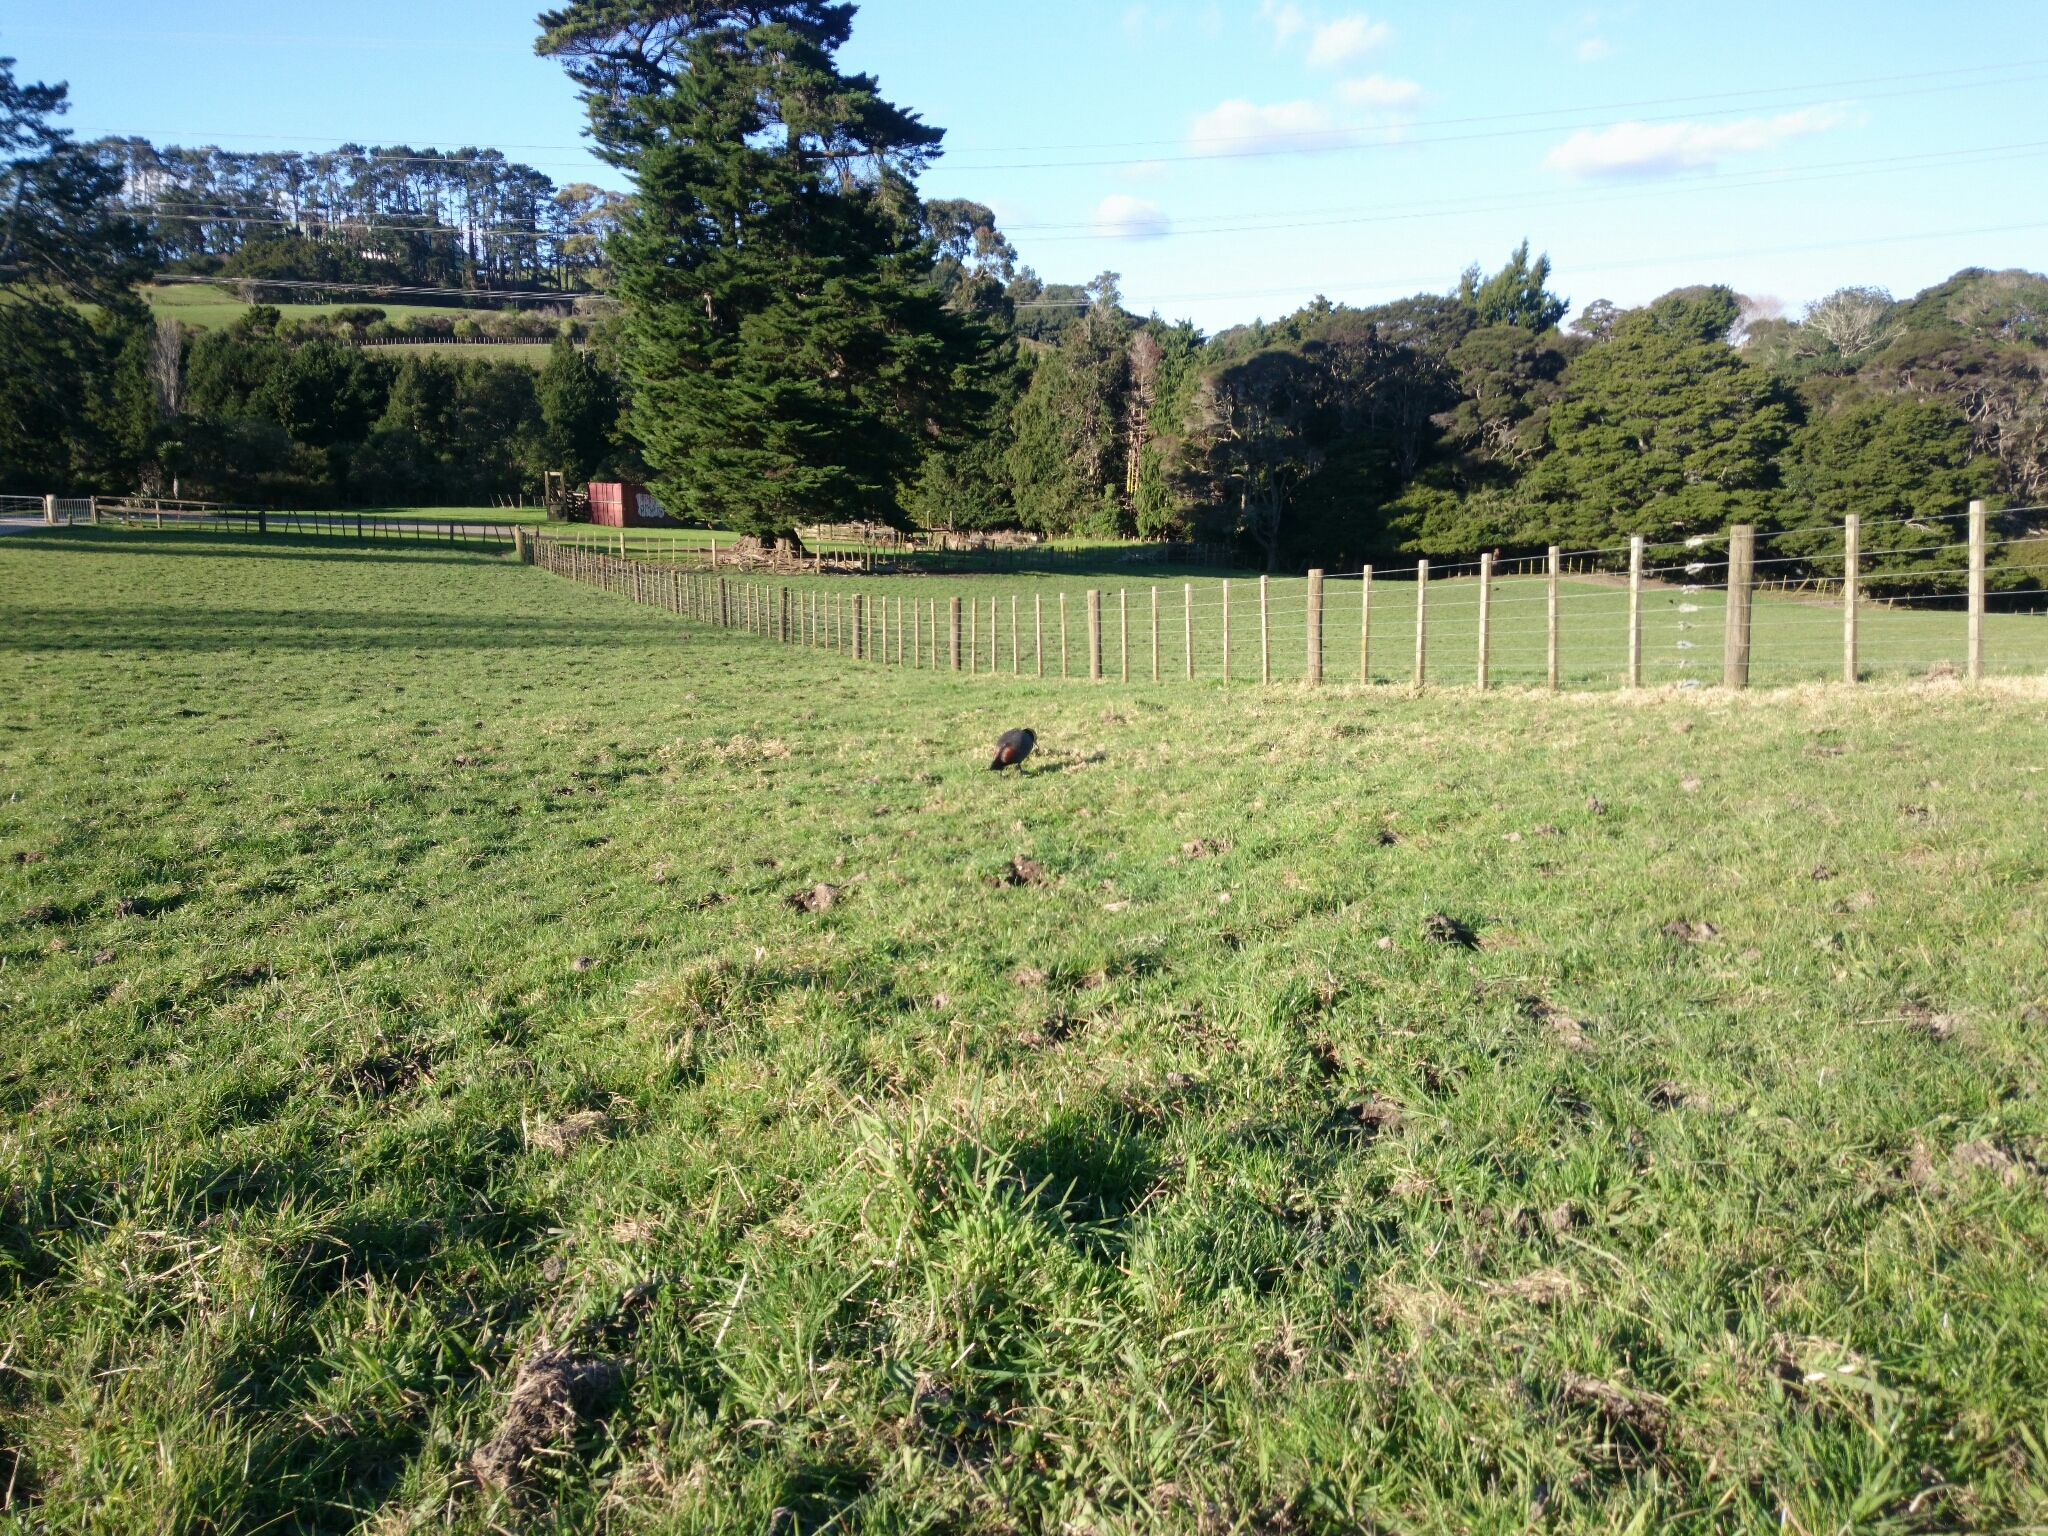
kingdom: Animalia
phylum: Chordata
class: Aves
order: Anseriformes
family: Anatidae
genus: Tadorna
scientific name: Tadorna variegata
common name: Paradise shelduck
